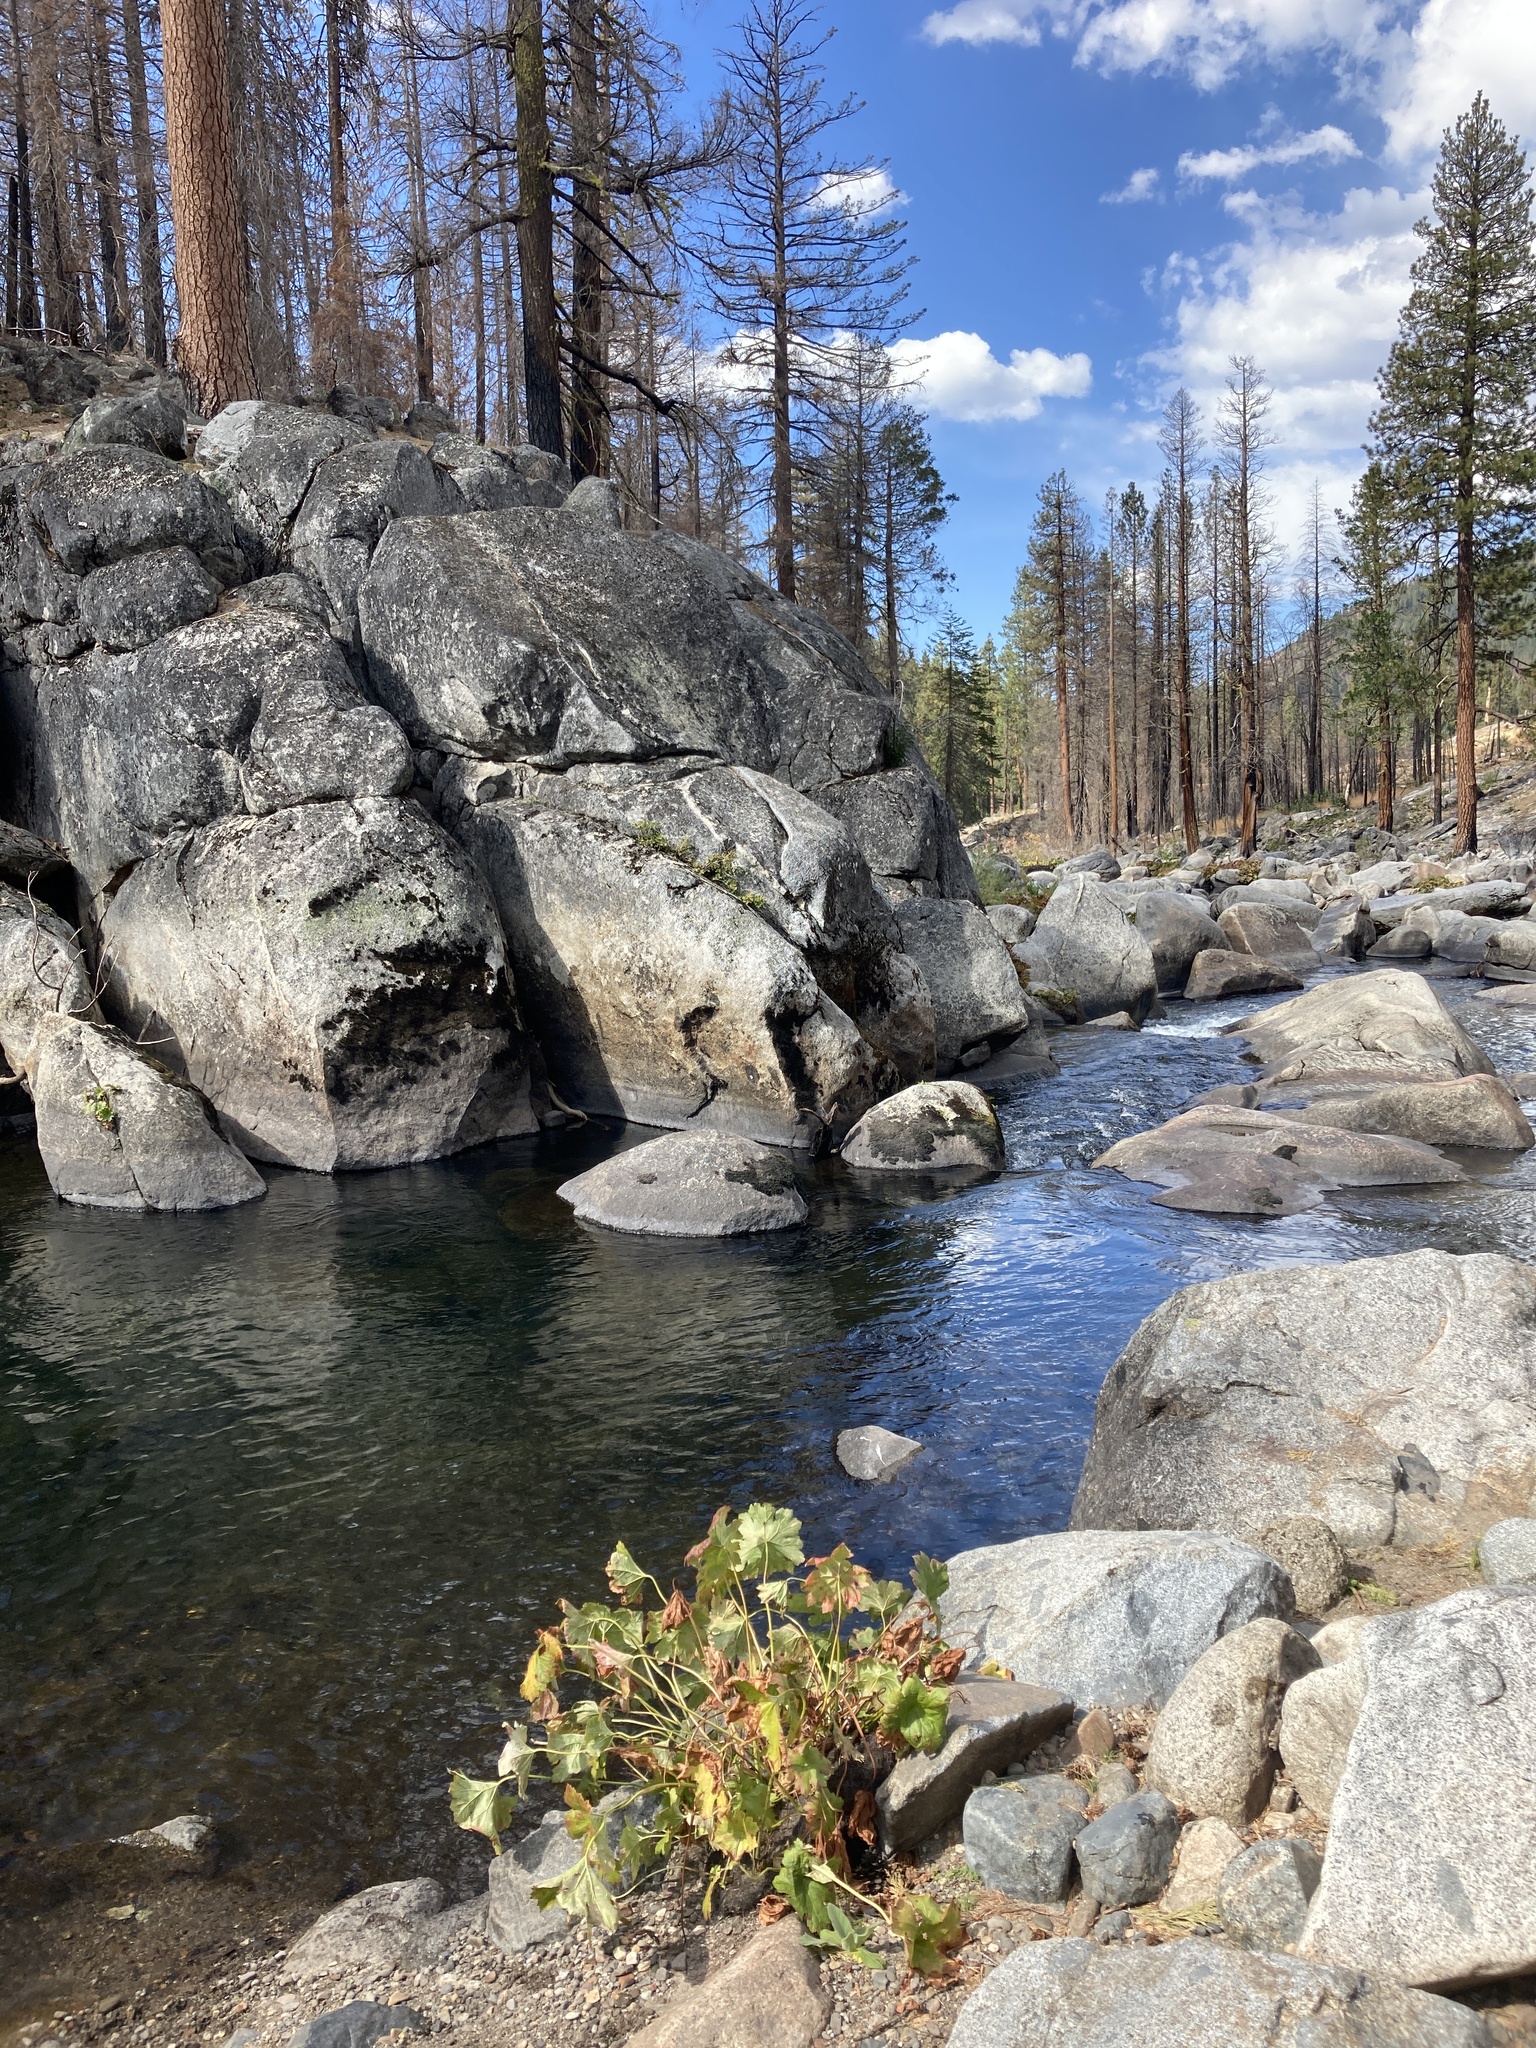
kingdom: Plantae
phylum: Tracheophyta
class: Magnoliopsida
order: Saxifragales
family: Saxifragaceae
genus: Darmera
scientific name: Darmera peltata
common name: Indian-rhubarb
